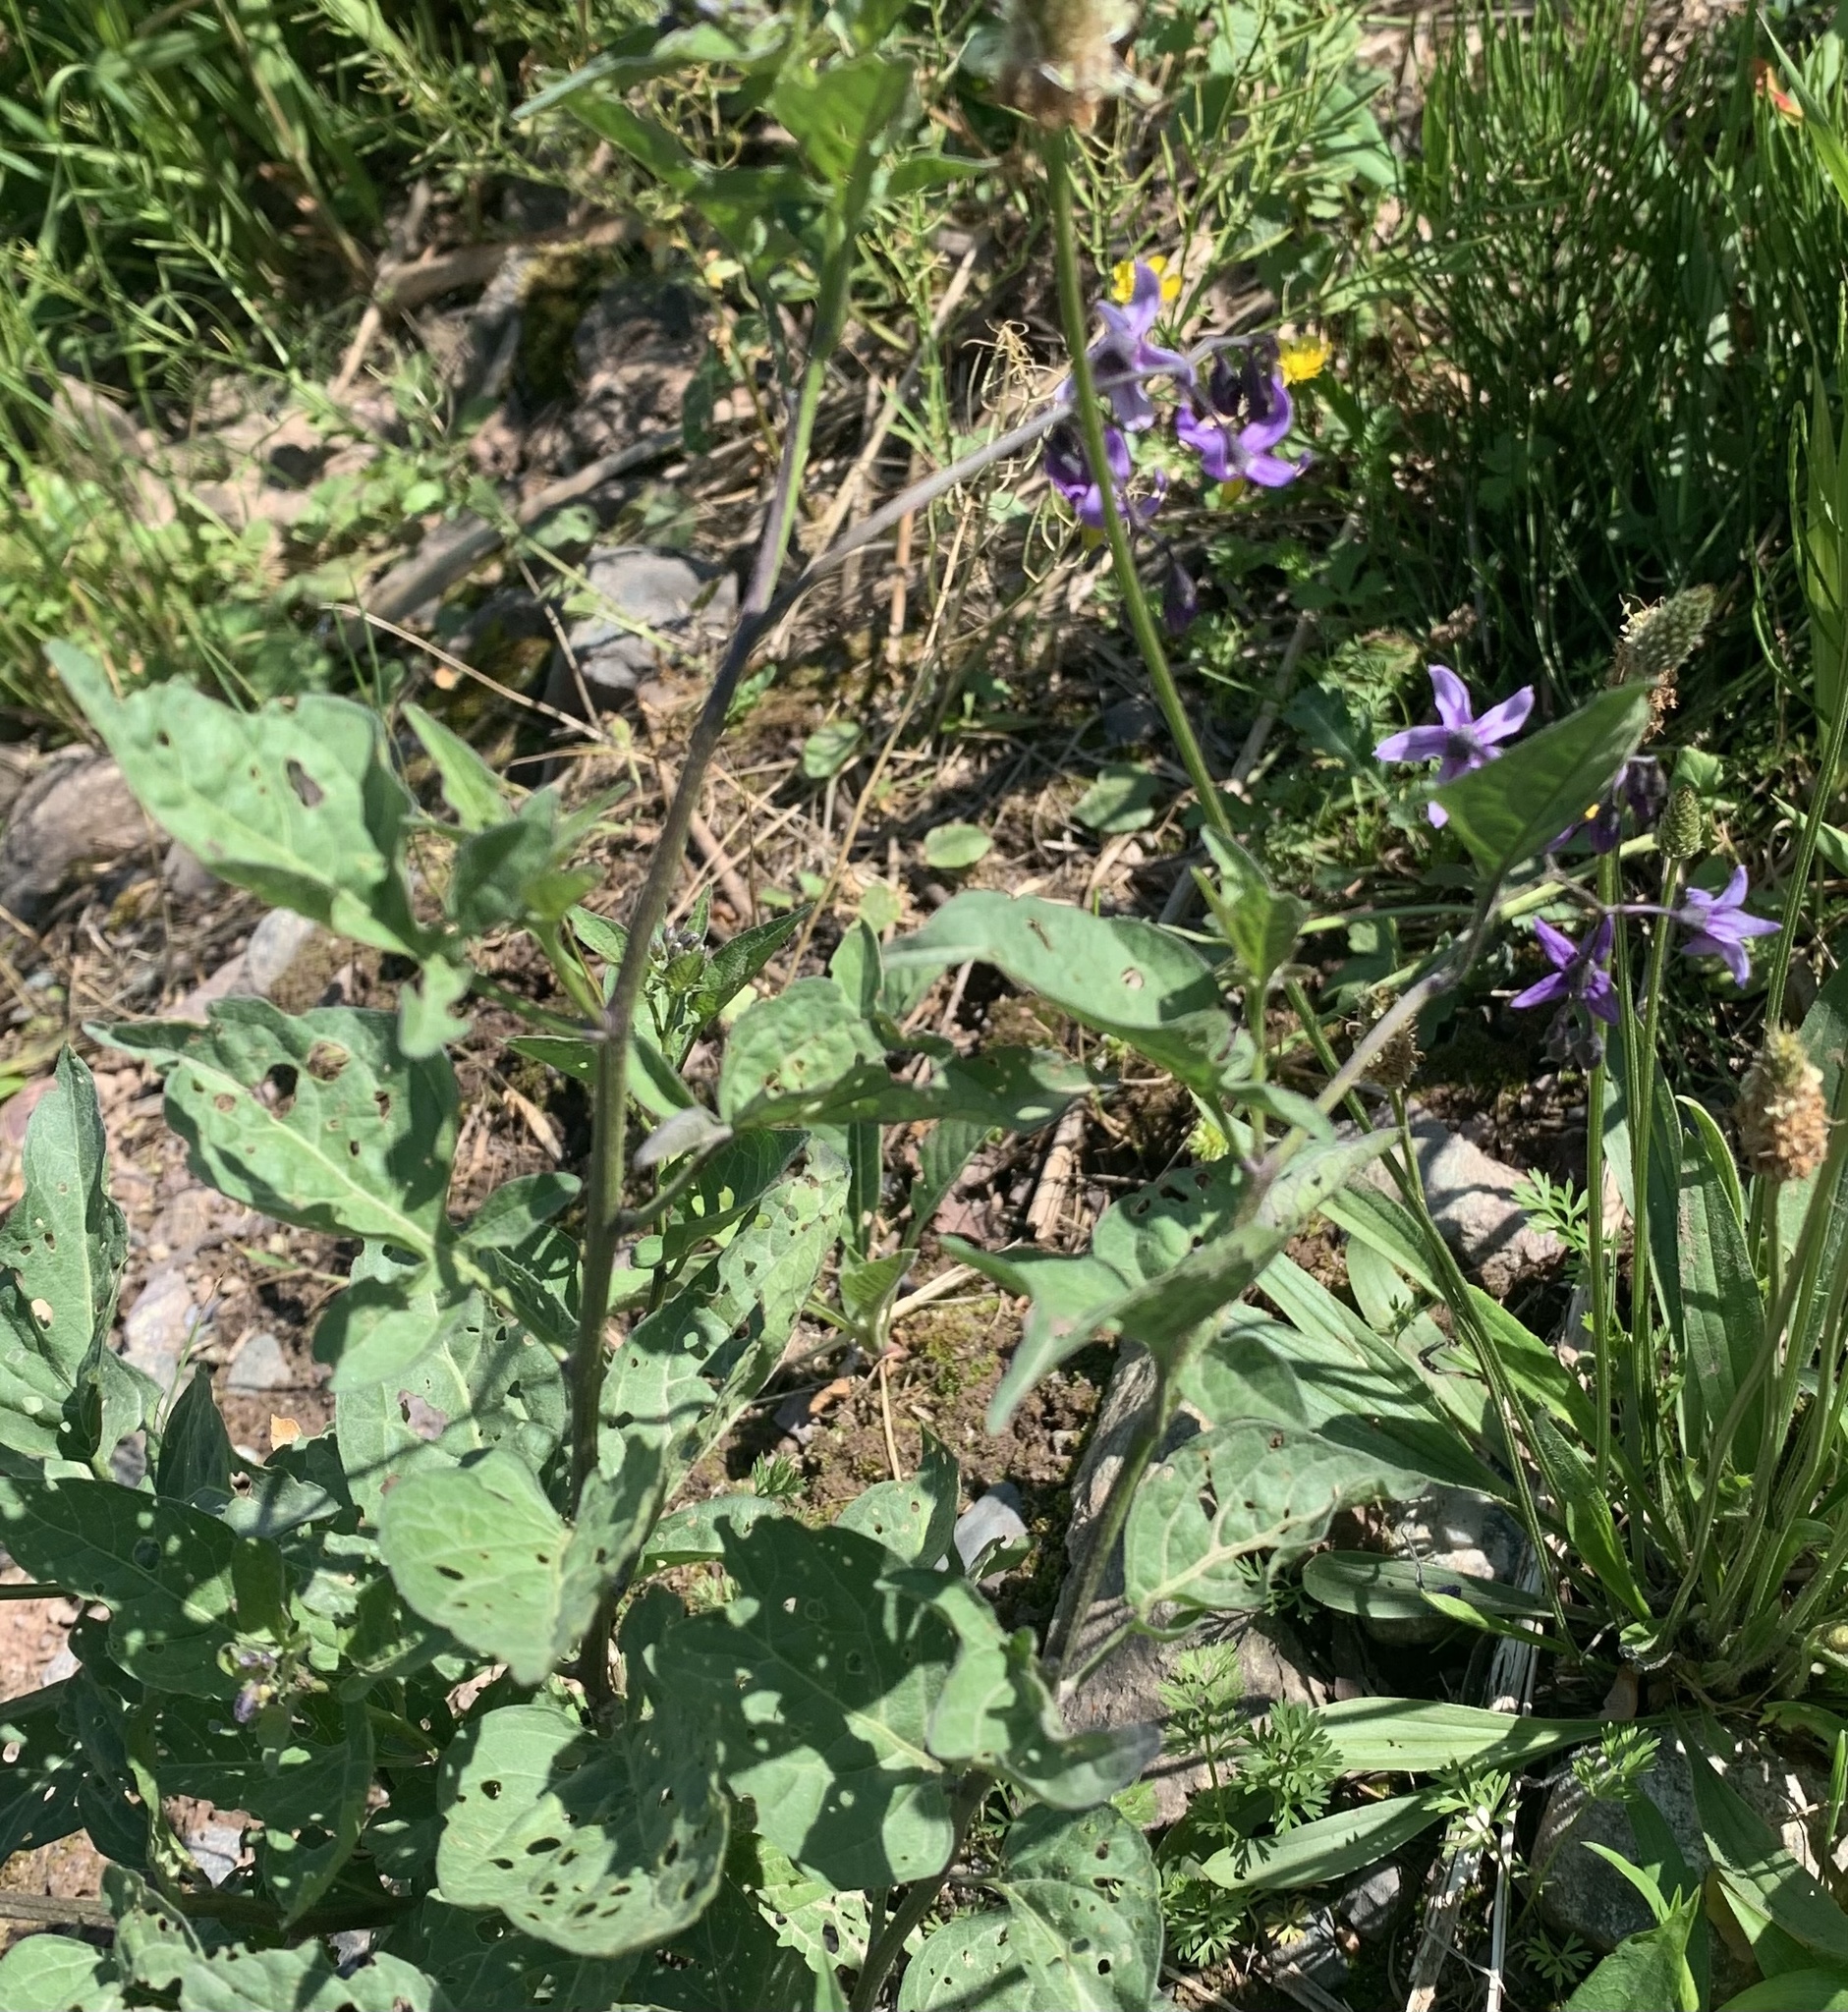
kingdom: Plantae
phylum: Tracheophyta
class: Magnoliopsida
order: Solanales
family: Solanaceae
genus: Solanum
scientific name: Solanum dulcamara
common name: Climbing nightshade
